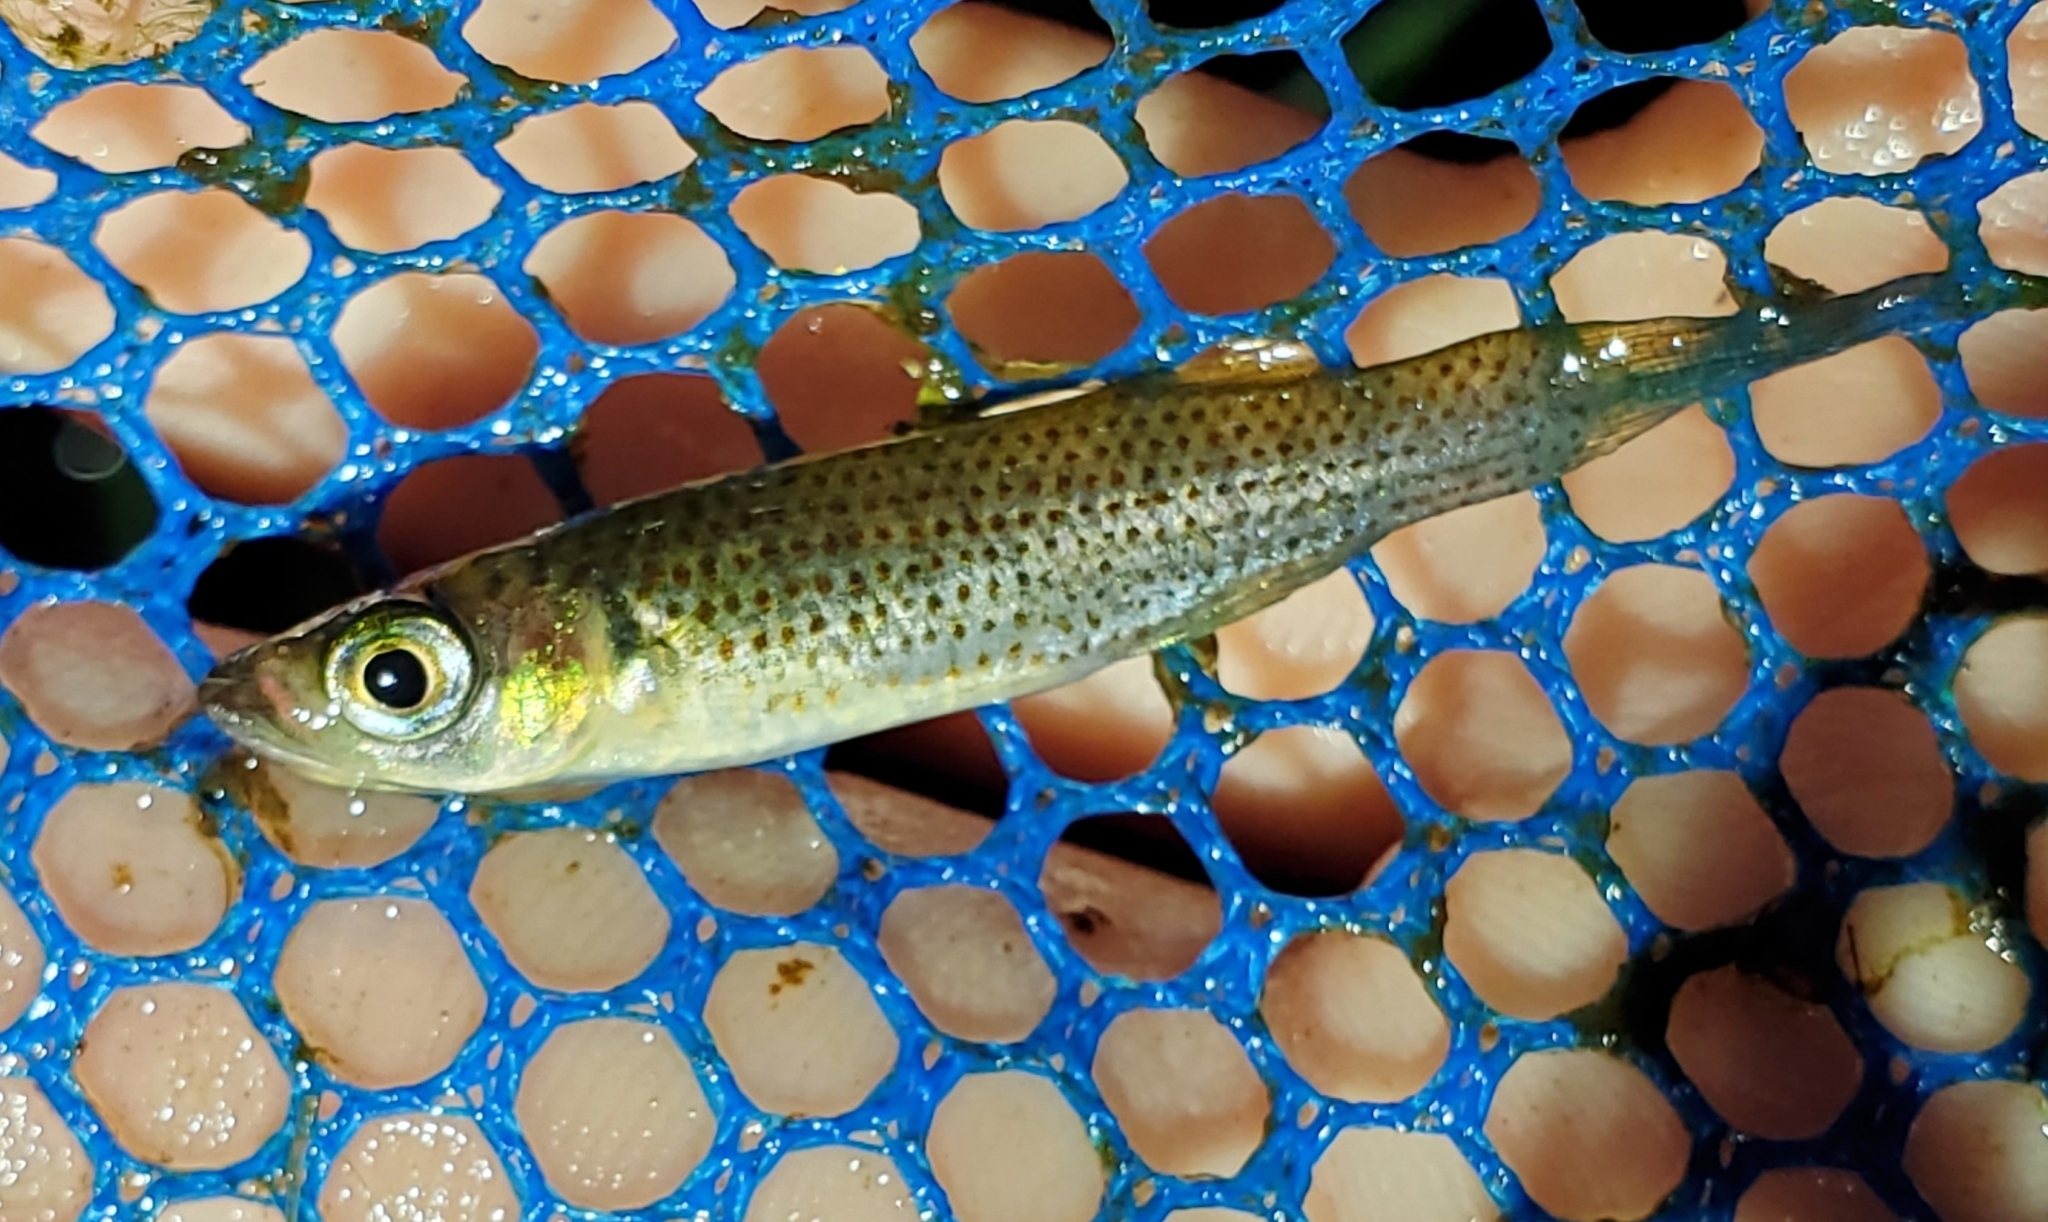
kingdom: Animalia
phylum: Chordata
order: Cyprinodontiformes
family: Fundulidae
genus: Fundulus
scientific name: Fundulus escambiae
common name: Russetfin topminnow
